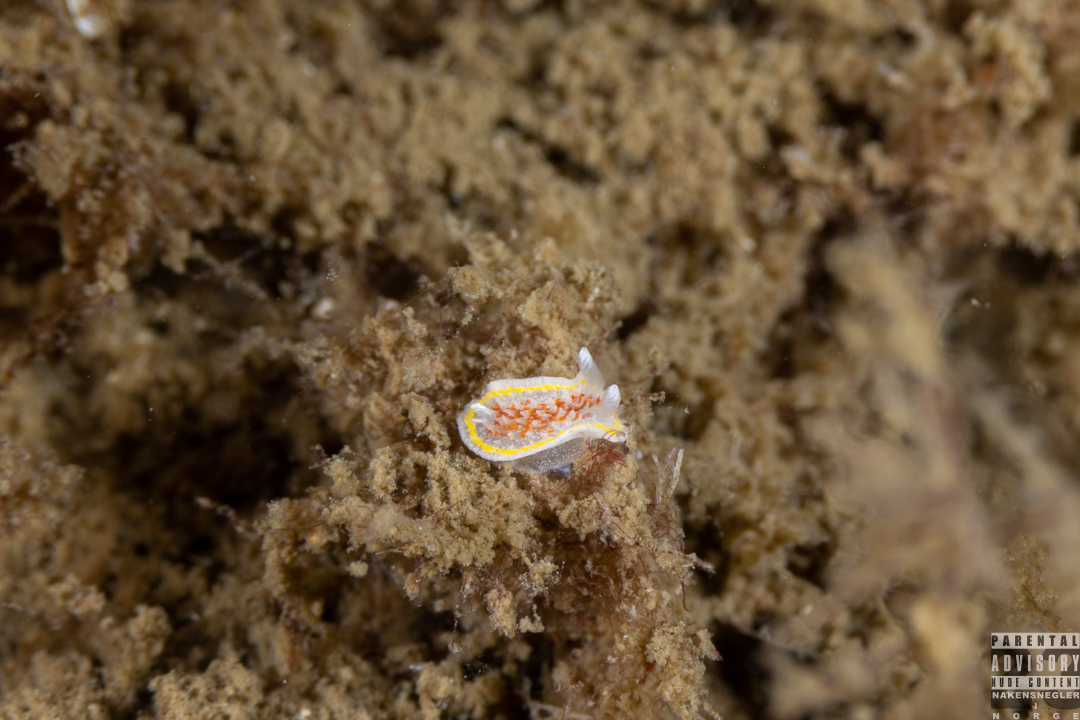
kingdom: Animalia
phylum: Mollusca
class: Gastropoda
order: Nudibranchia
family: Calycidorididae
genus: Diaphorodoris
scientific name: Diaphorodoris luteocincta
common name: Fried egg nudibranch
